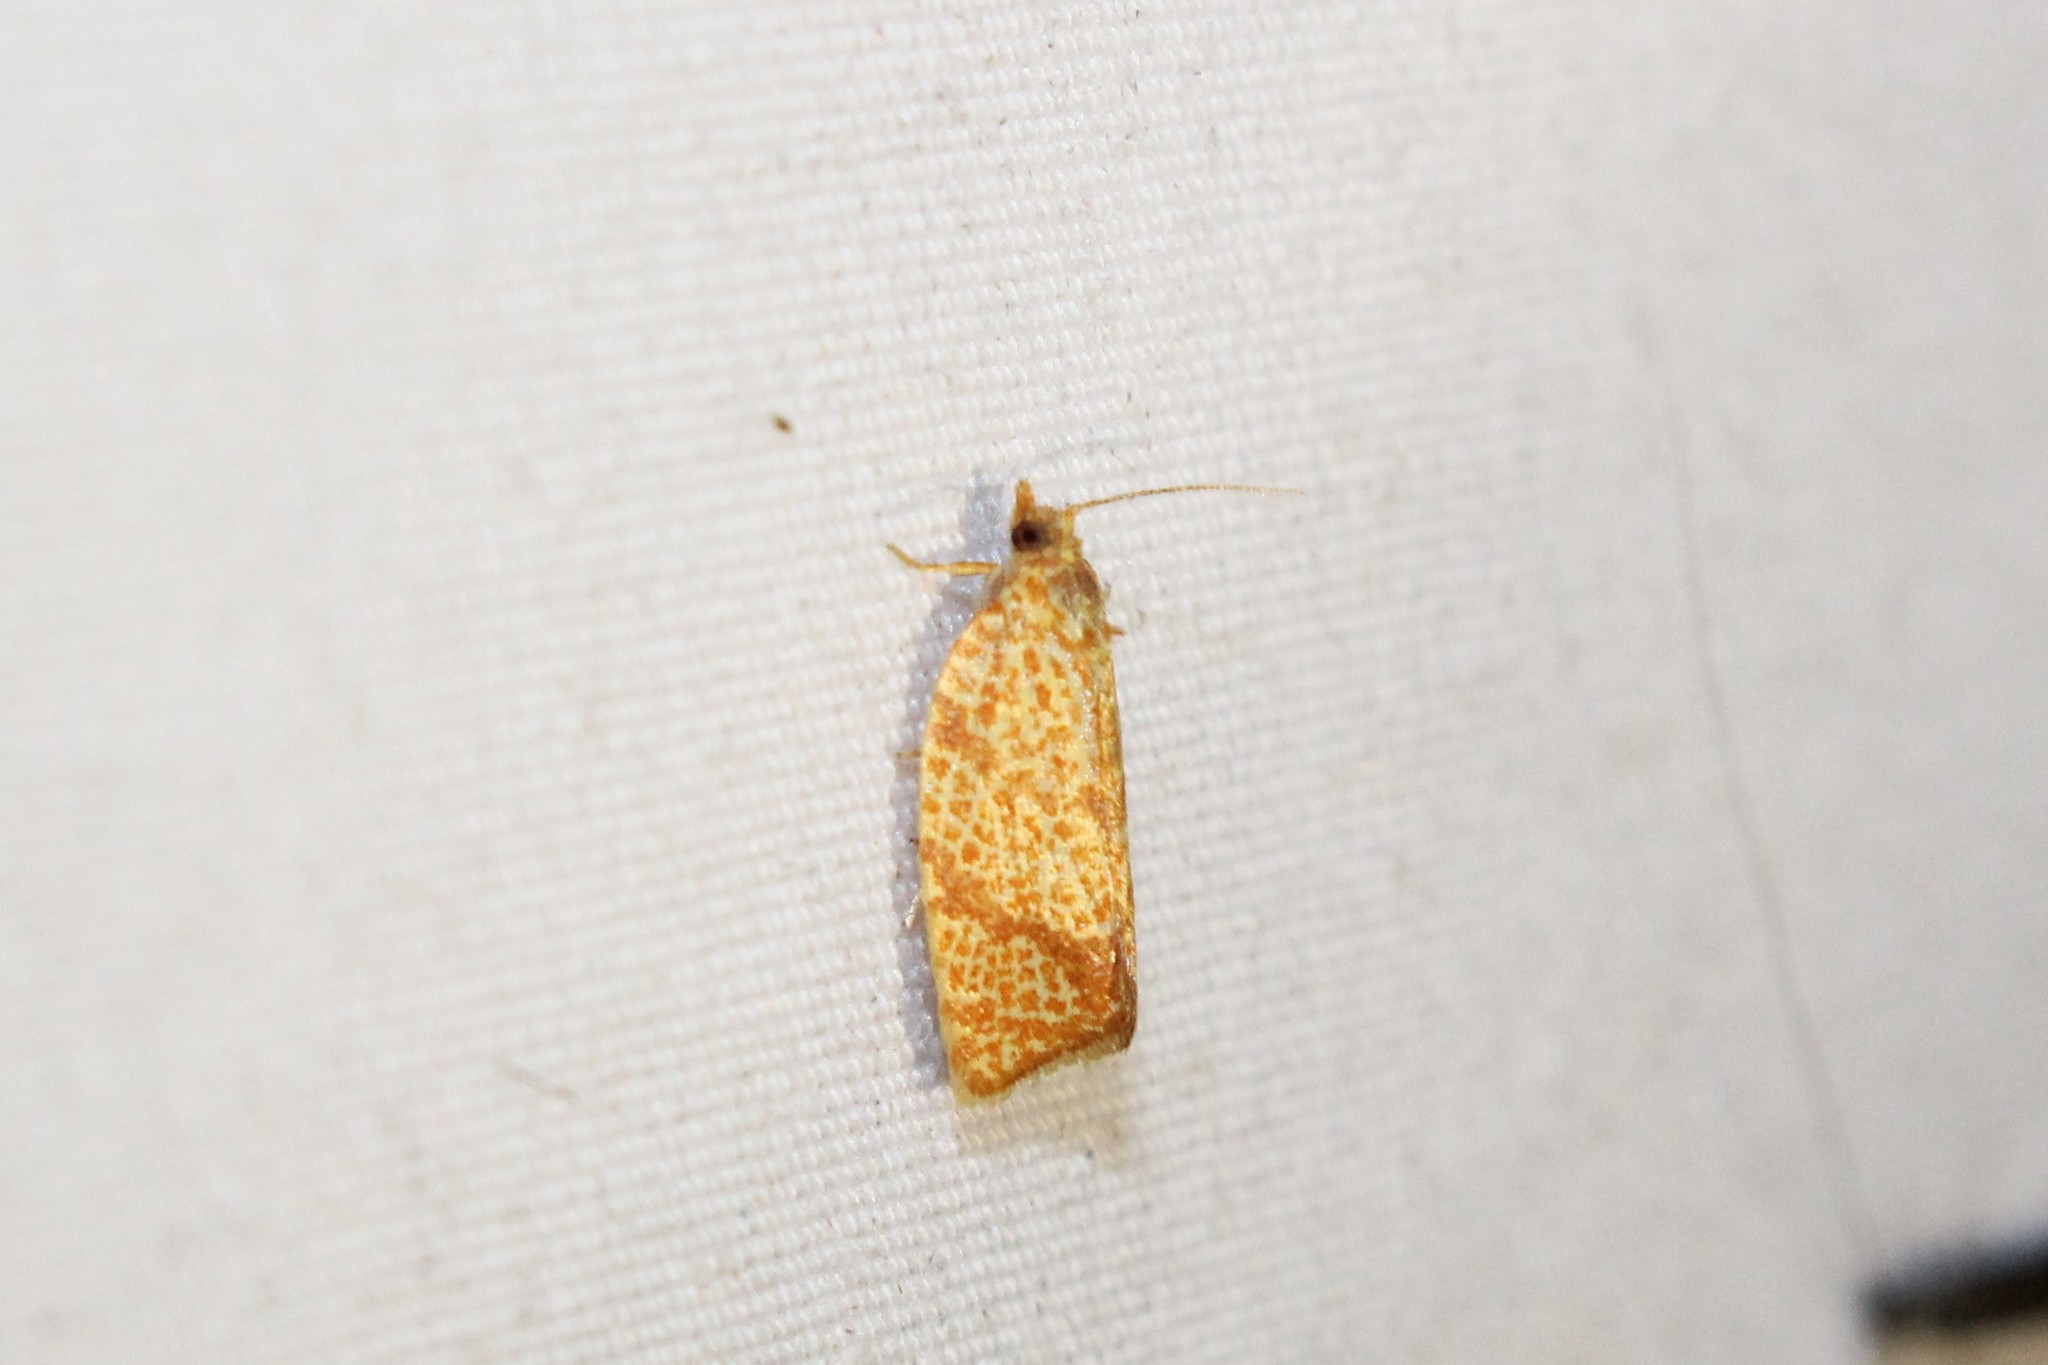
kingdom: Animalia
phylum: Arthropoda
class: Insecta
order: Lepidoptera
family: Tortricidae
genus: Argyrotaenia
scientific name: Argyrotaenia quadrifasciana
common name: Four-lined leafroller moth
